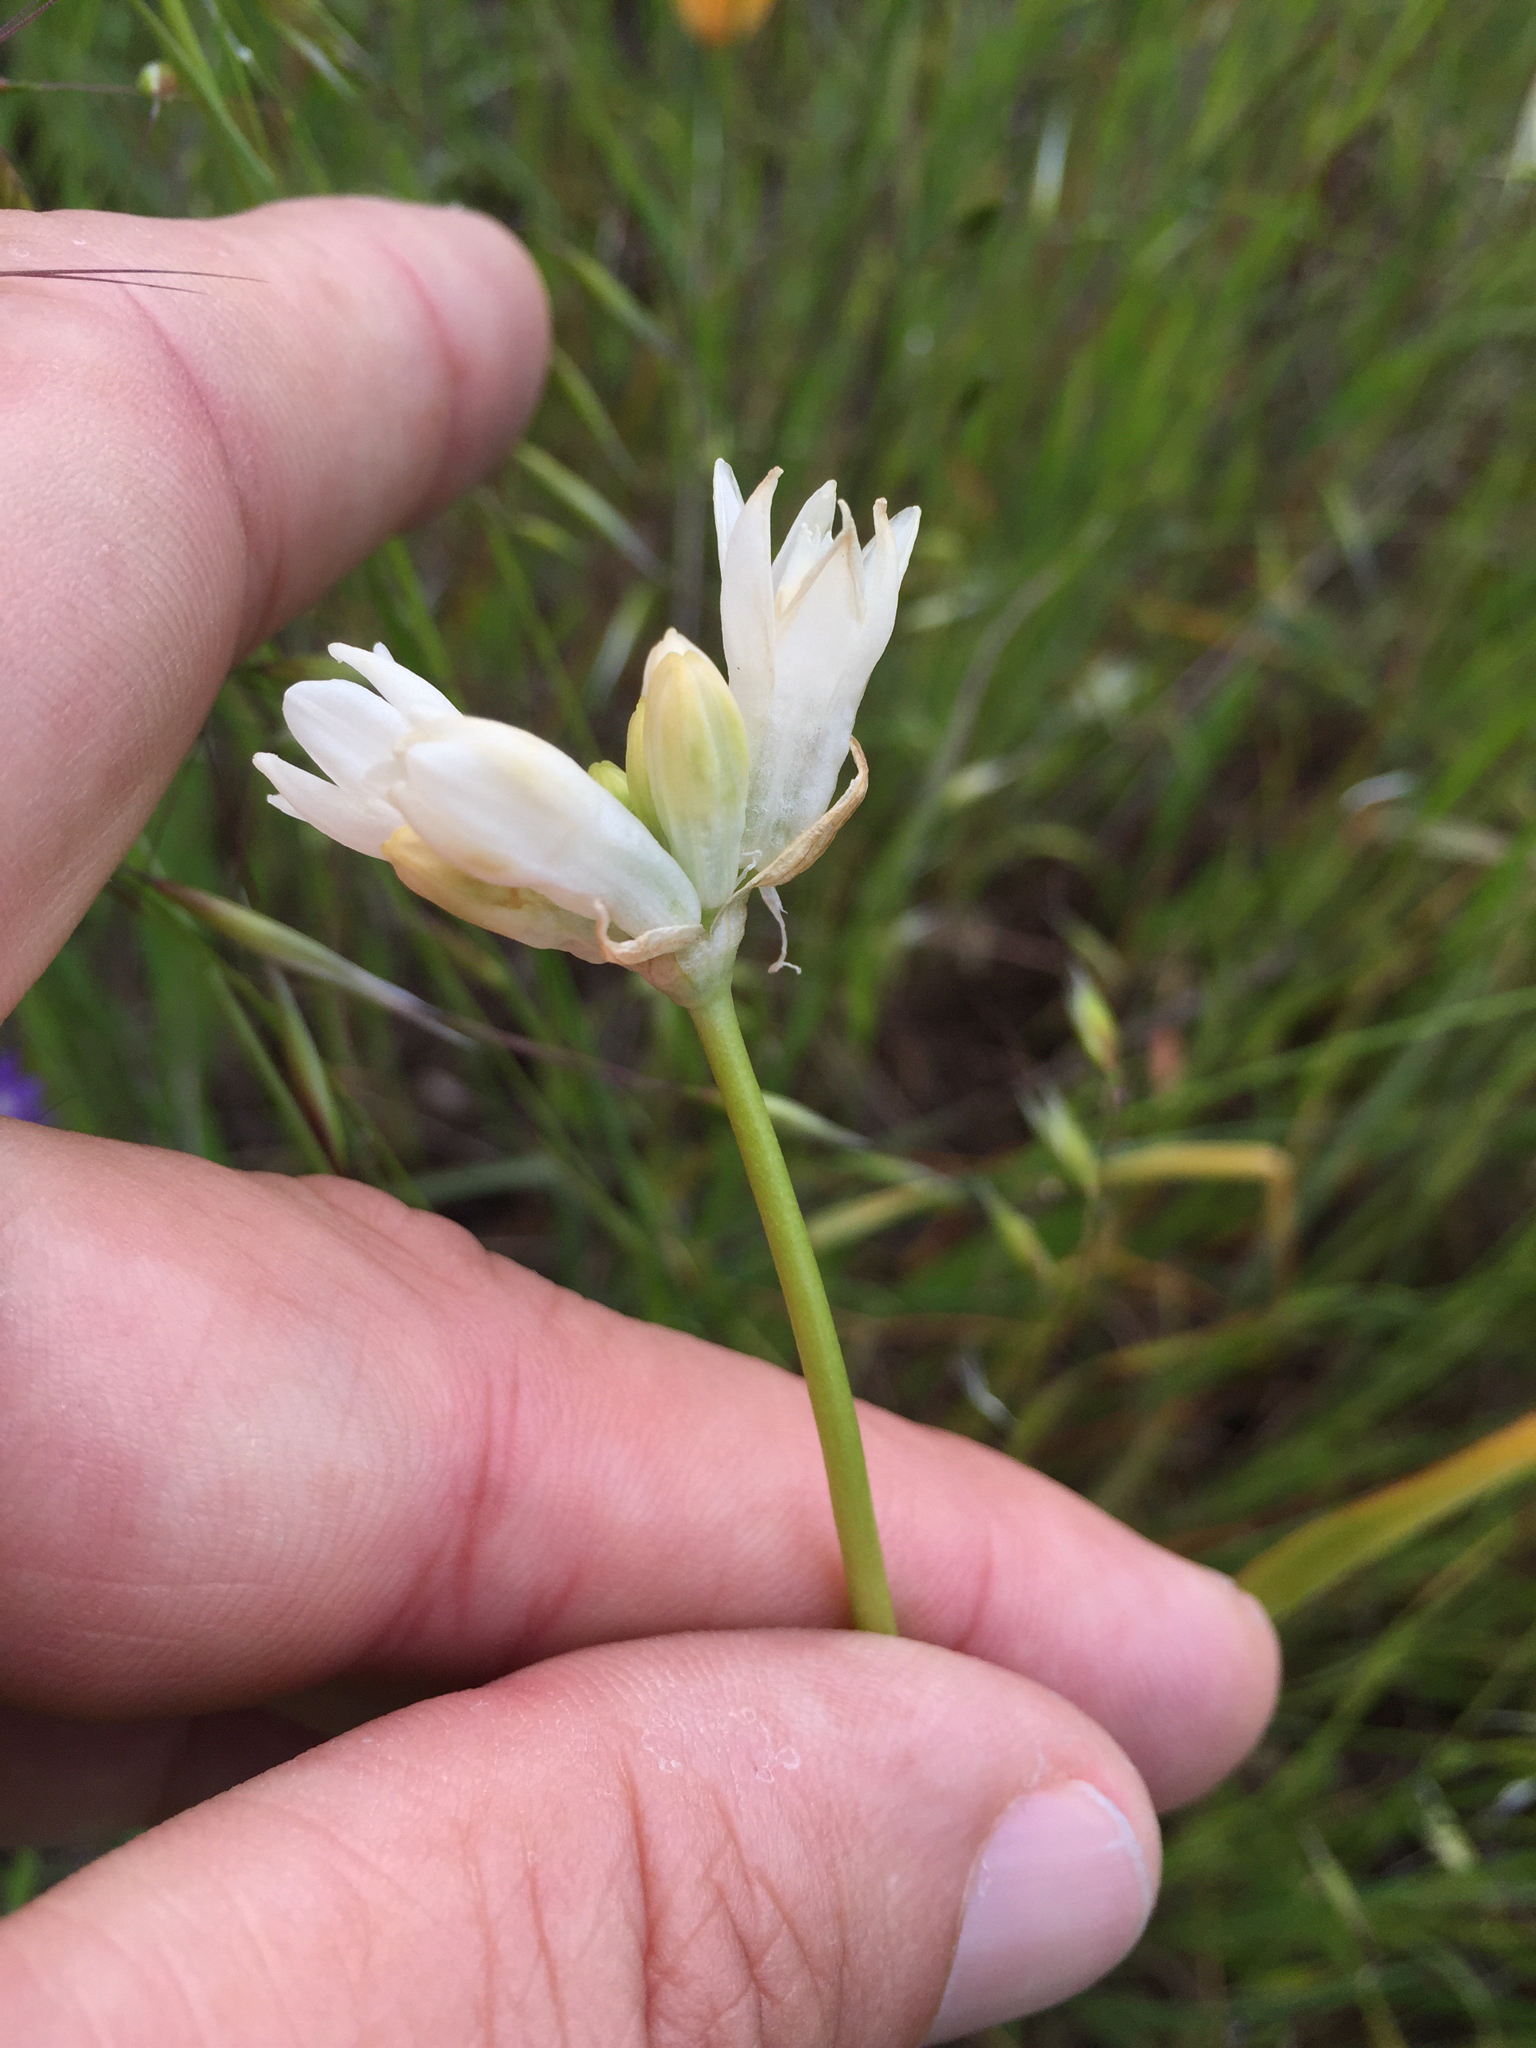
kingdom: Plantae
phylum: Tracheophyta
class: Liliopsida
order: Asparagales
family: Asparagaceae
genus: Dipterostemon
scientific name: Dipterostemon capitatus
